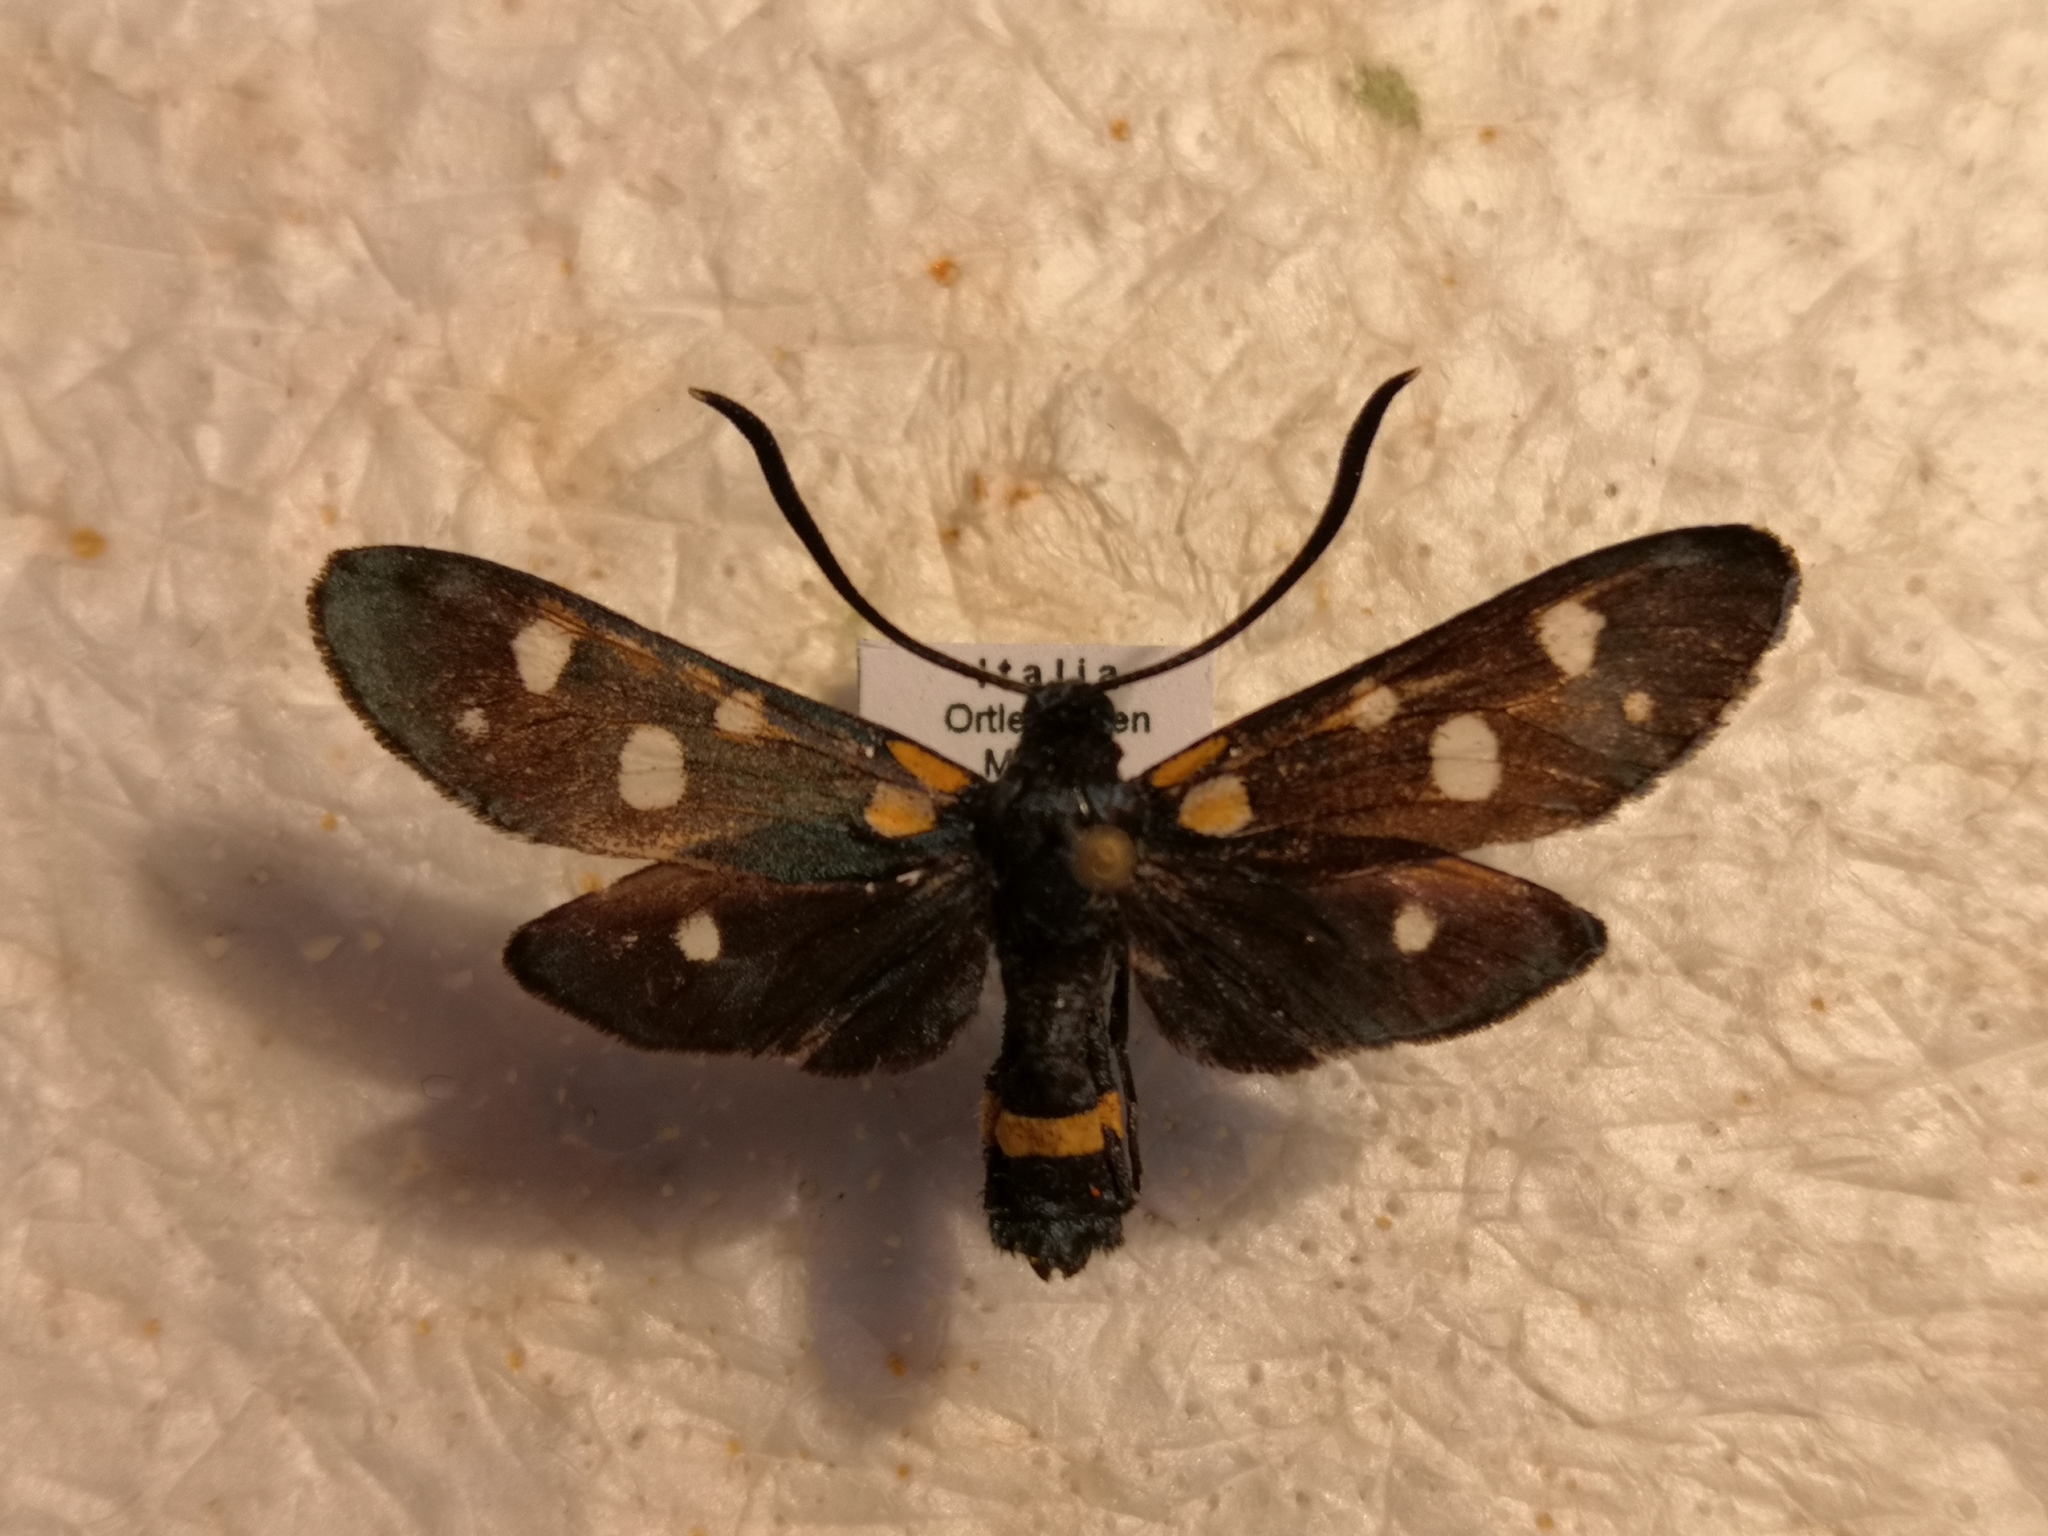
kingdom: Animalia
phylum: Arthropoda
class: Insecta
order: Lepidoptera
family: Zygaenidae
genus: Zygaena
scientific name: Zygaena ephialtes
